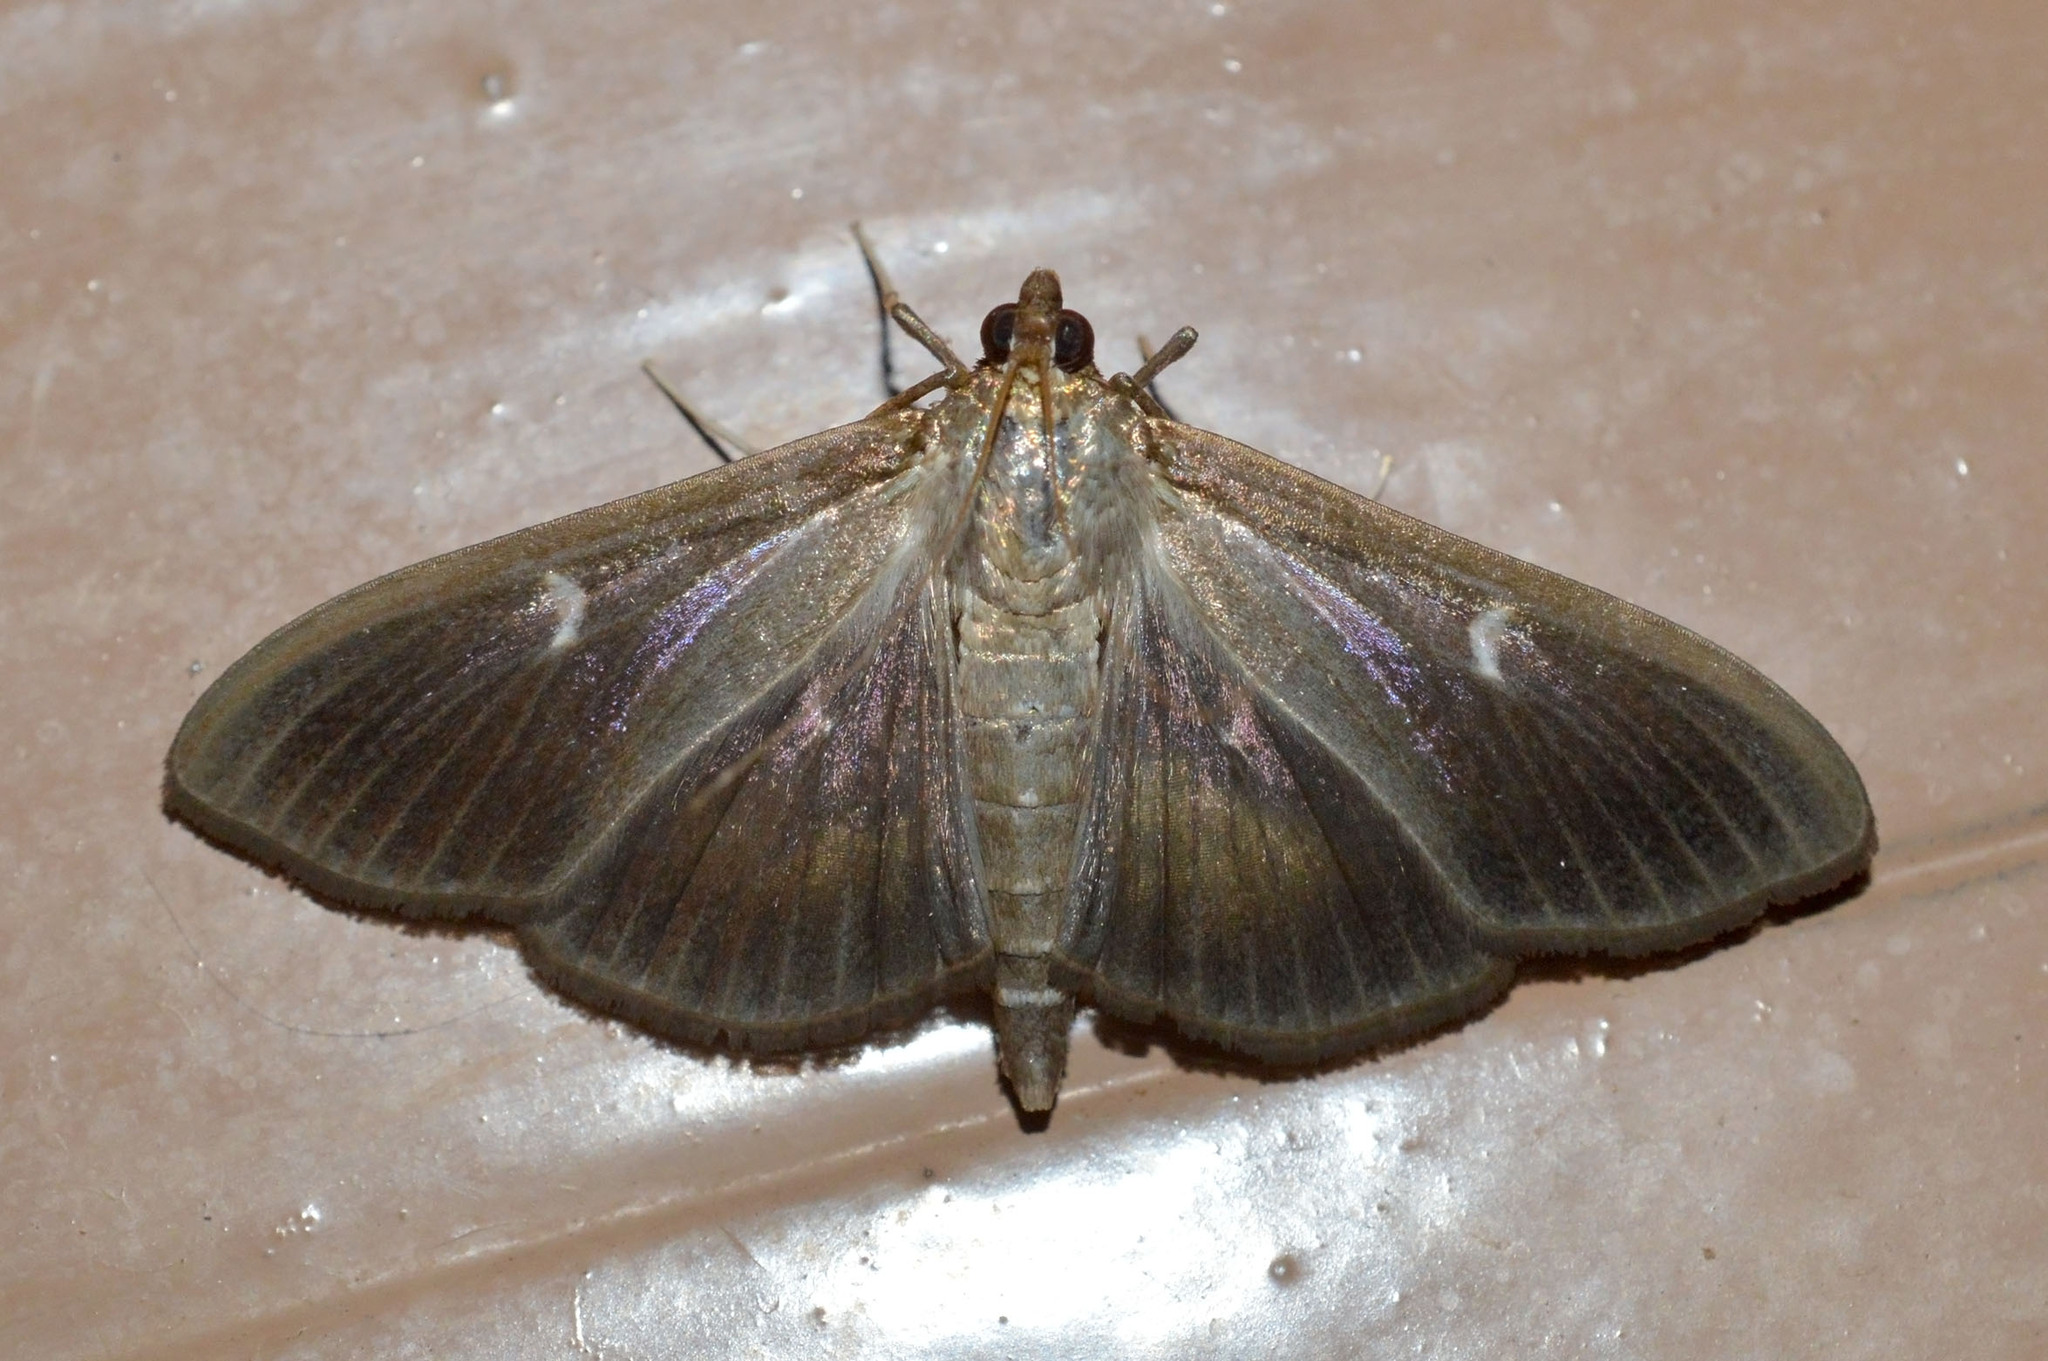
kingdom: Animalia
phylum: Arthropoda
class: Insecta
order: Lepidoptera
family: Crambidae
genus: Cydalima
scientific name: Cydalima perspectalis
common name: Box tree moth
